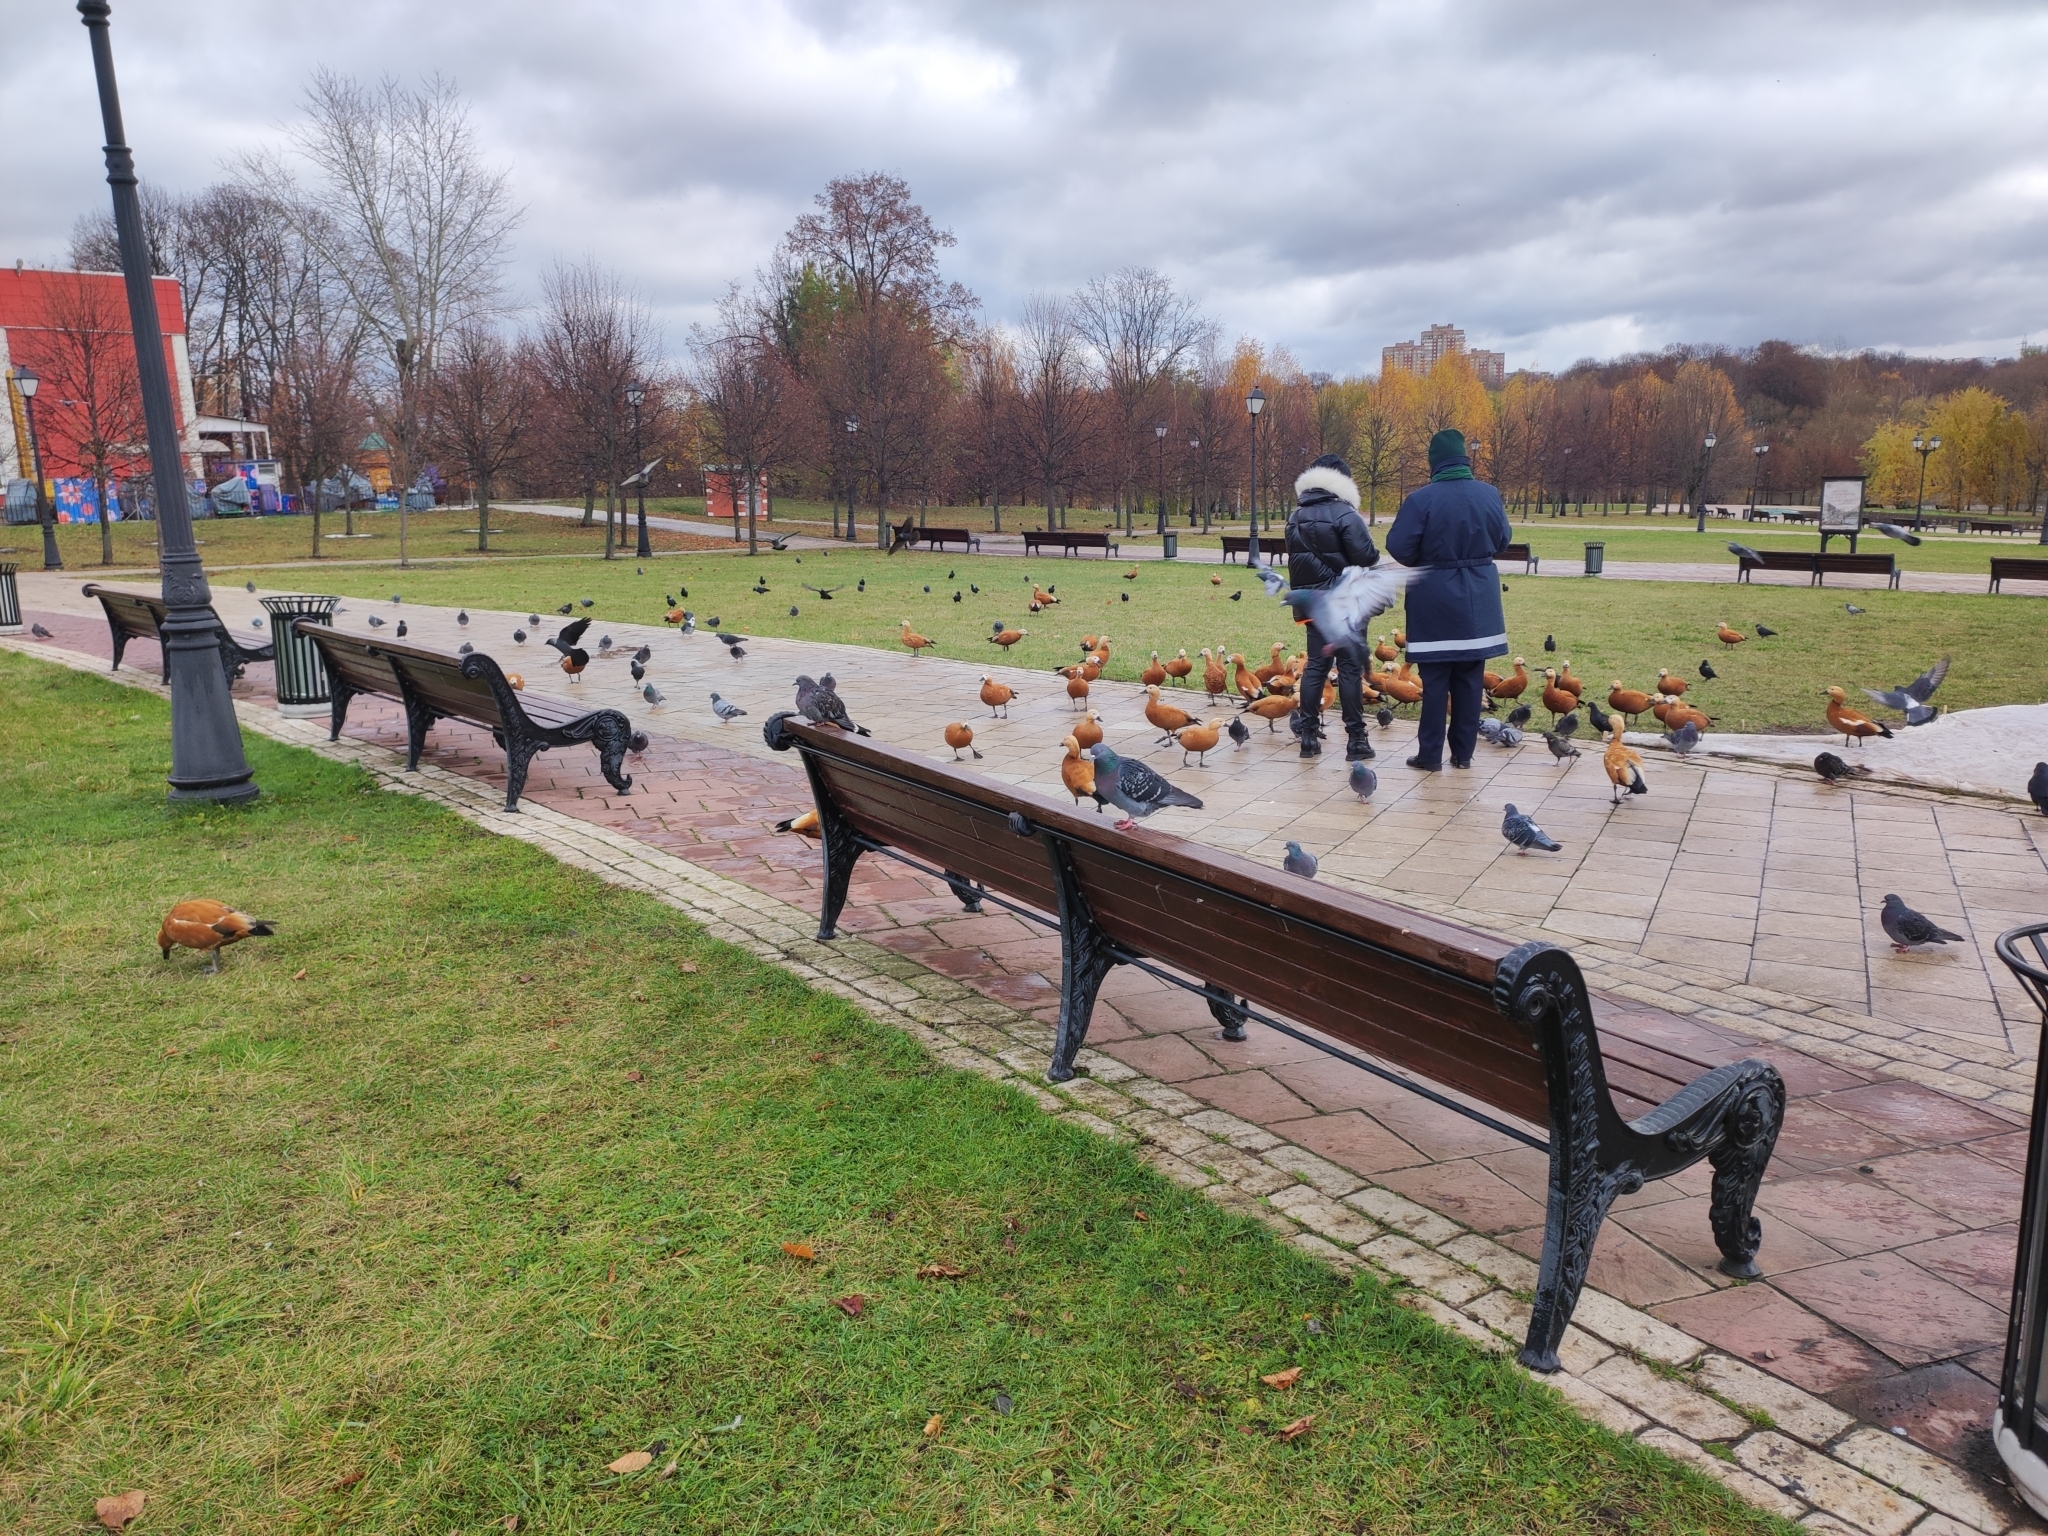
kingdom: Animalia
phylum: Chordata
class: Aves
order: Anseriformes
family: Anatidae
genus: Tadorna
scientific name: Tadorna ferruginea
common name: Ruddy shelduck
